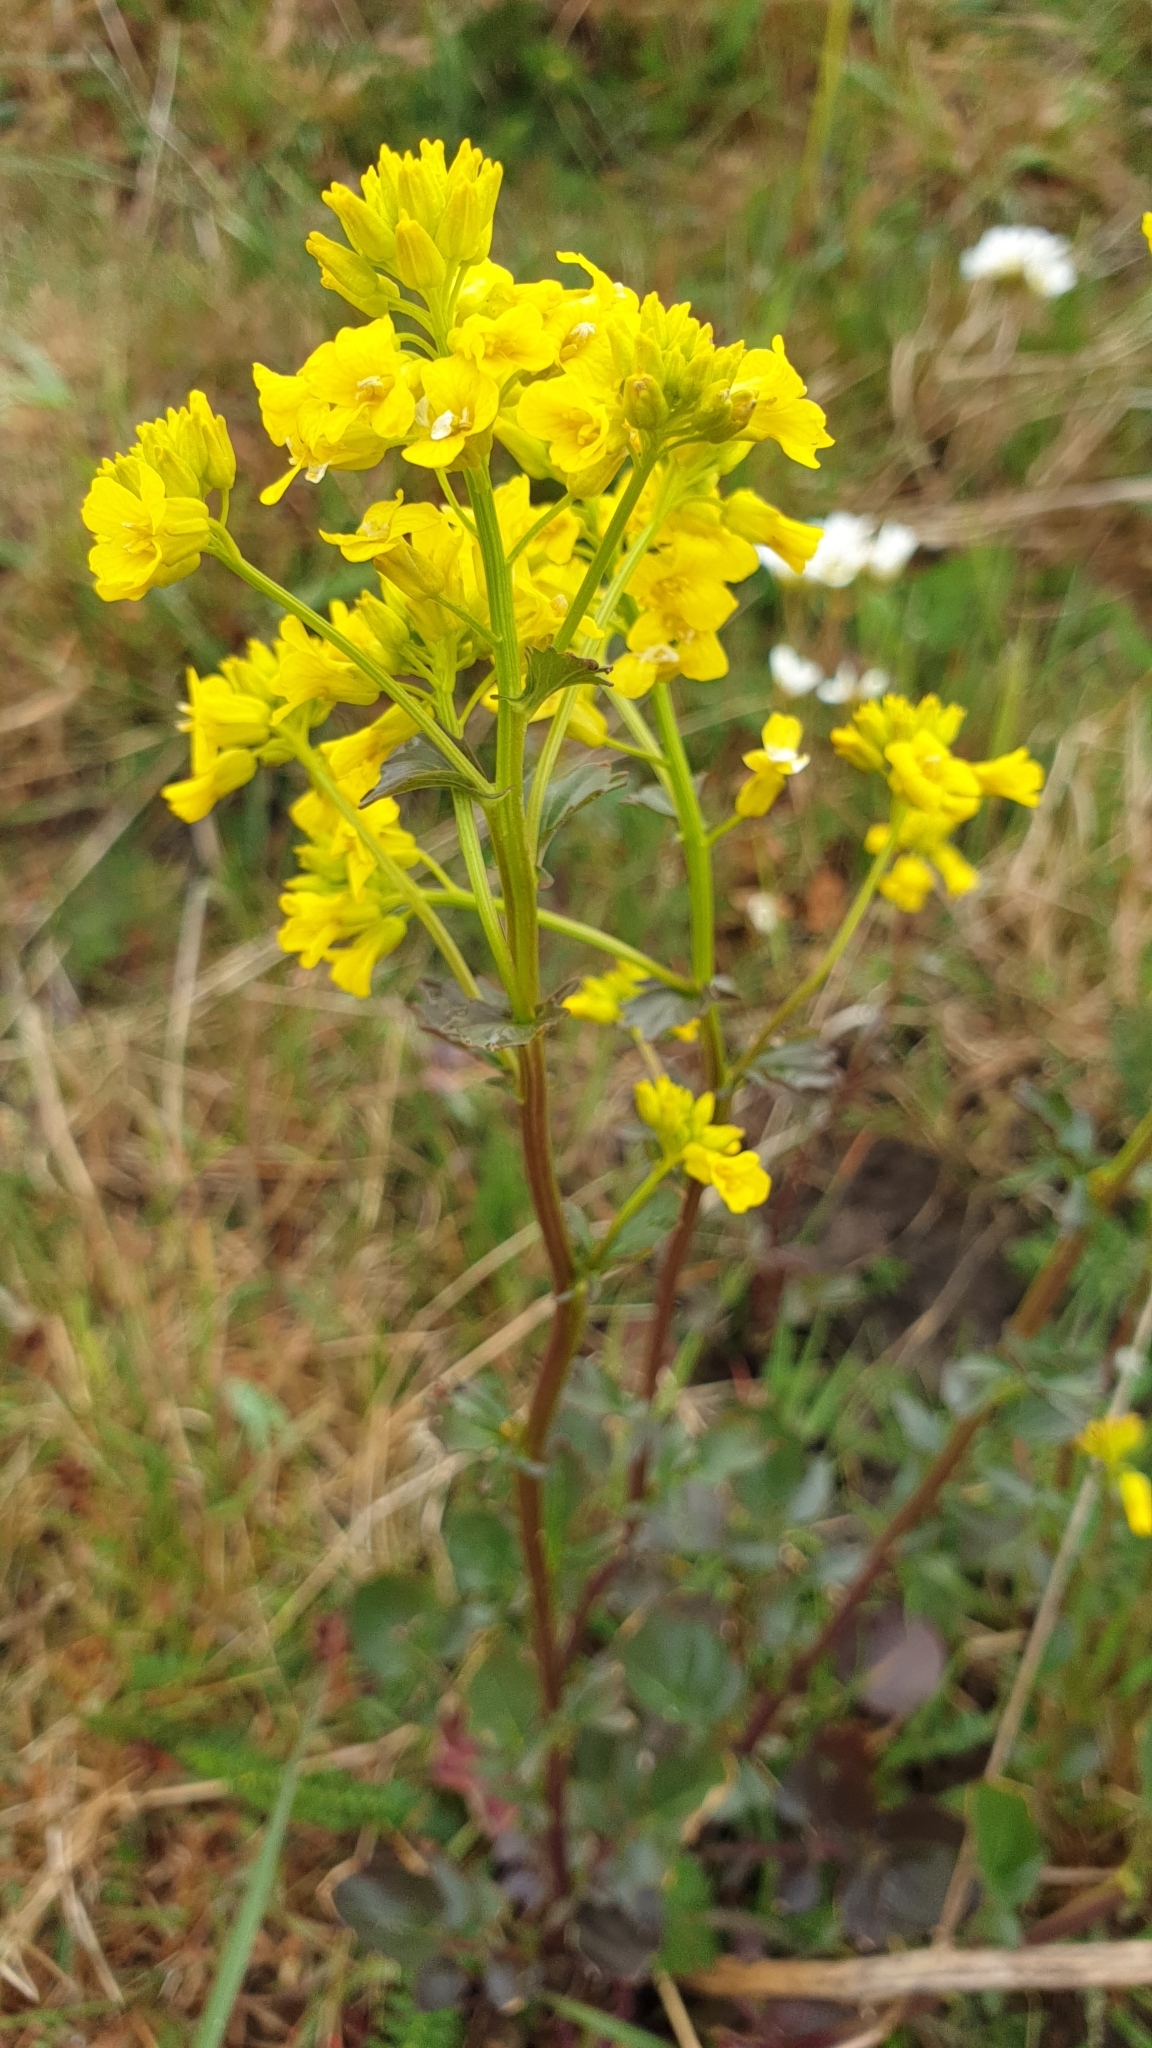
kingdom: Plantae
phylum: Tracheophyta
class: Magnoliopsida
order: Brassicales
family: Brassicaceae
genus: Barbarea
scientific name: Barbarea vulgaris
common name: Cressy-greens
